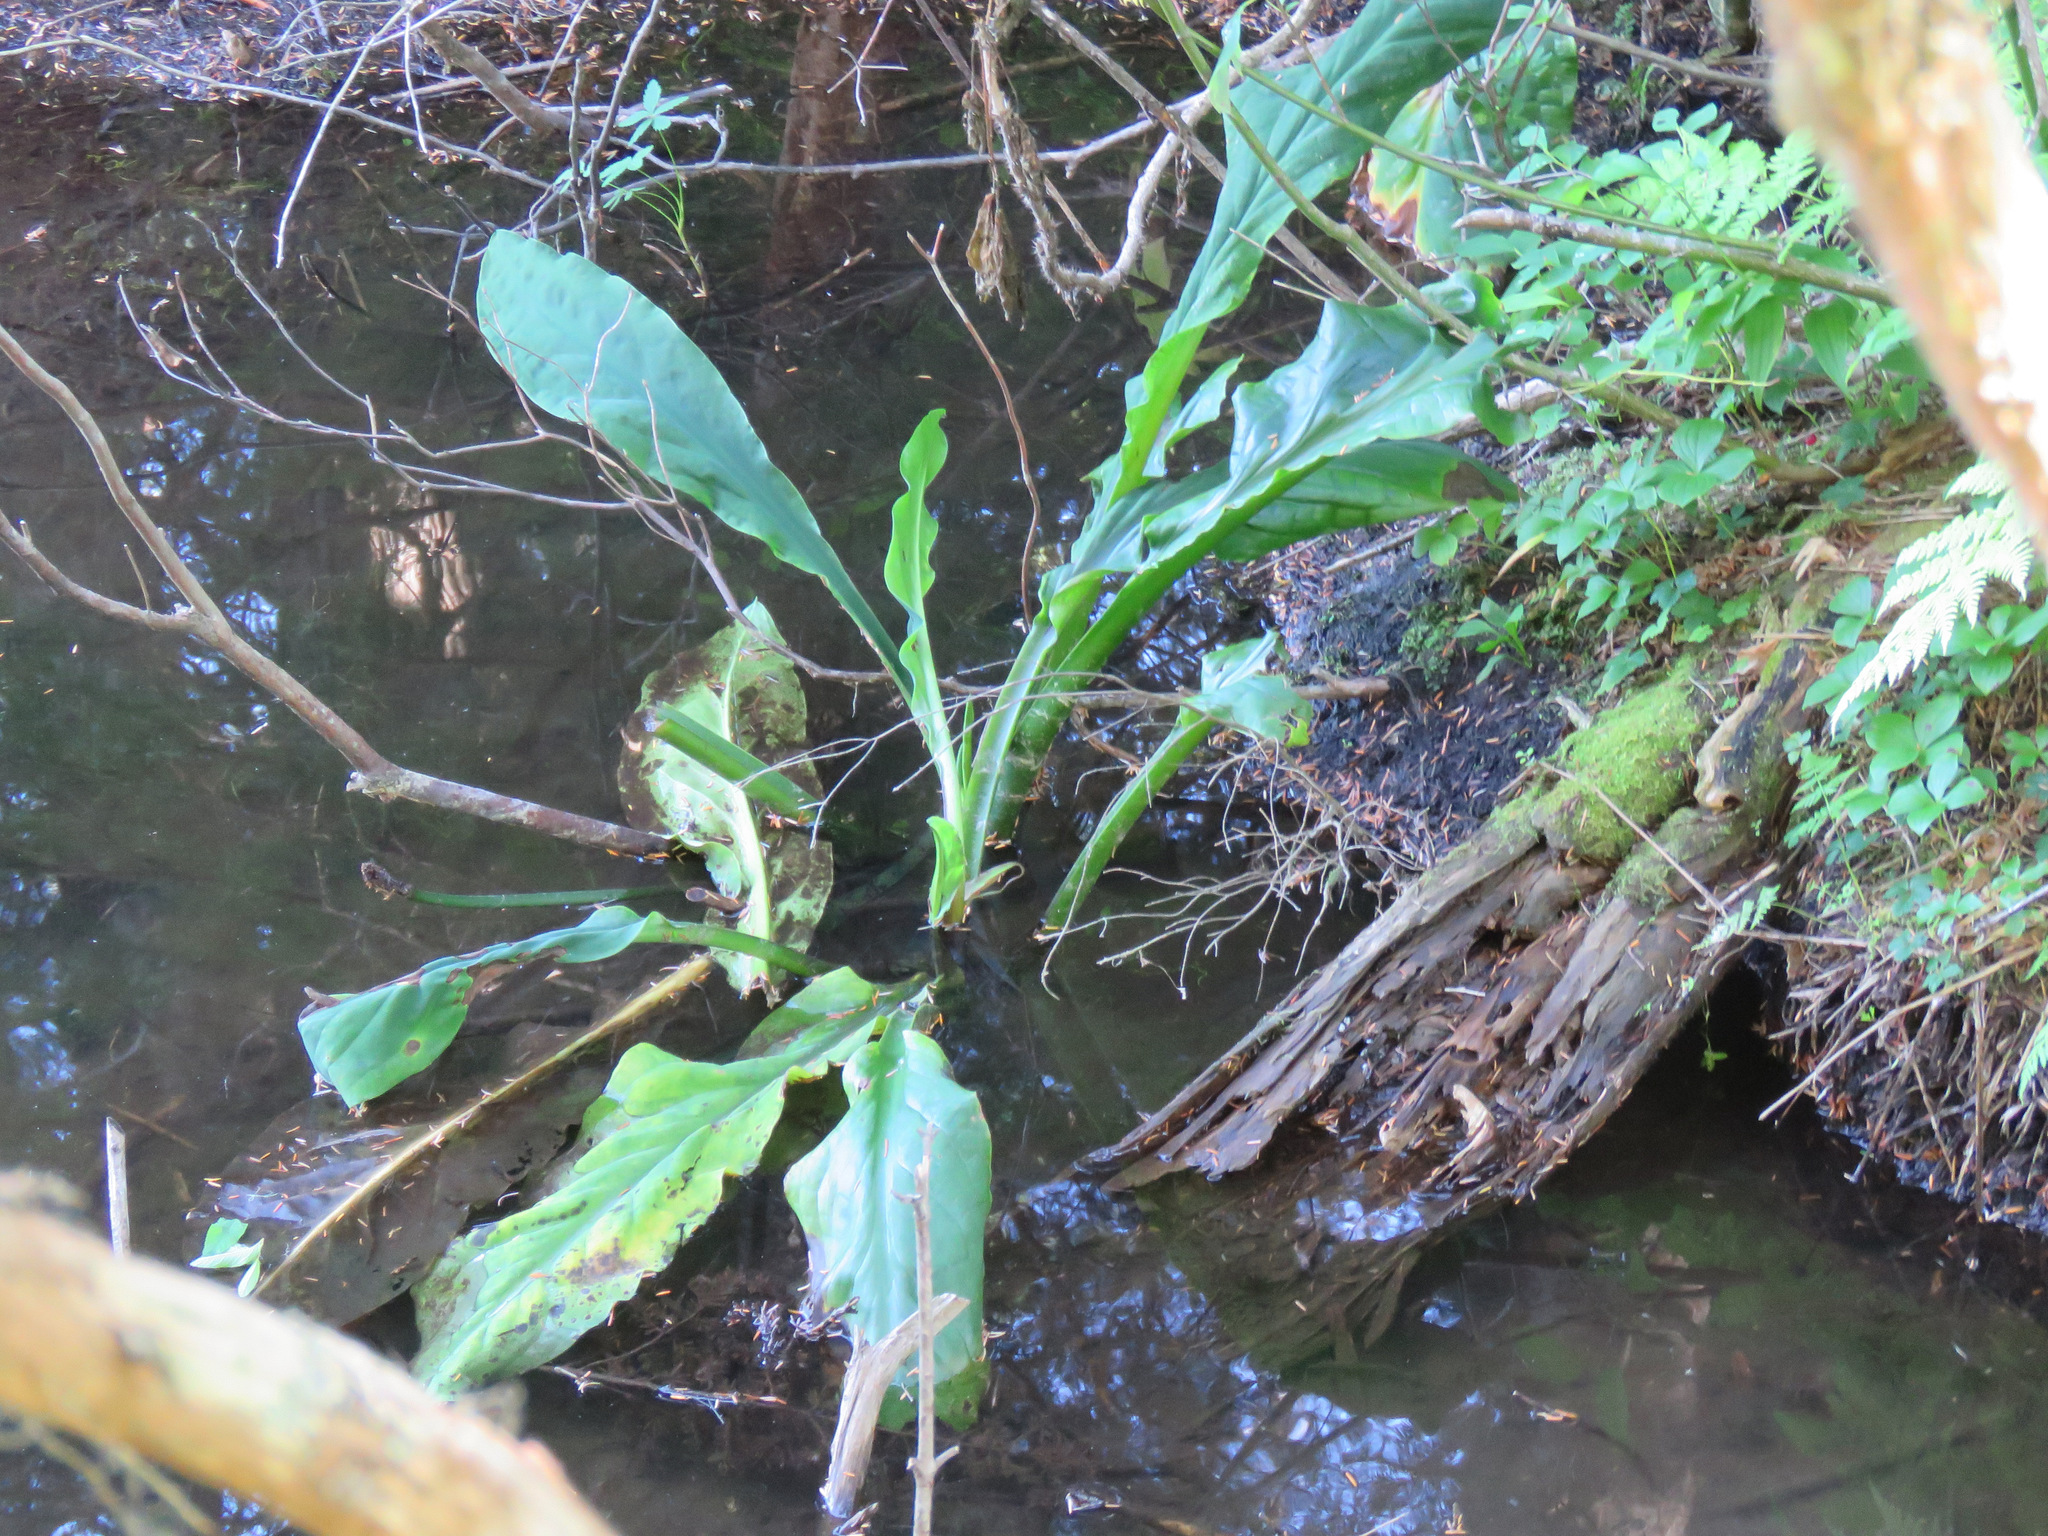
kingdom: Plantae
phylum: Tracheophyta
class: Liliopsida
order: Alismatales
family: Araceae
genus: Lysichiton
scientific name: Lysichiton americanus
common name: American skunk cabbage
